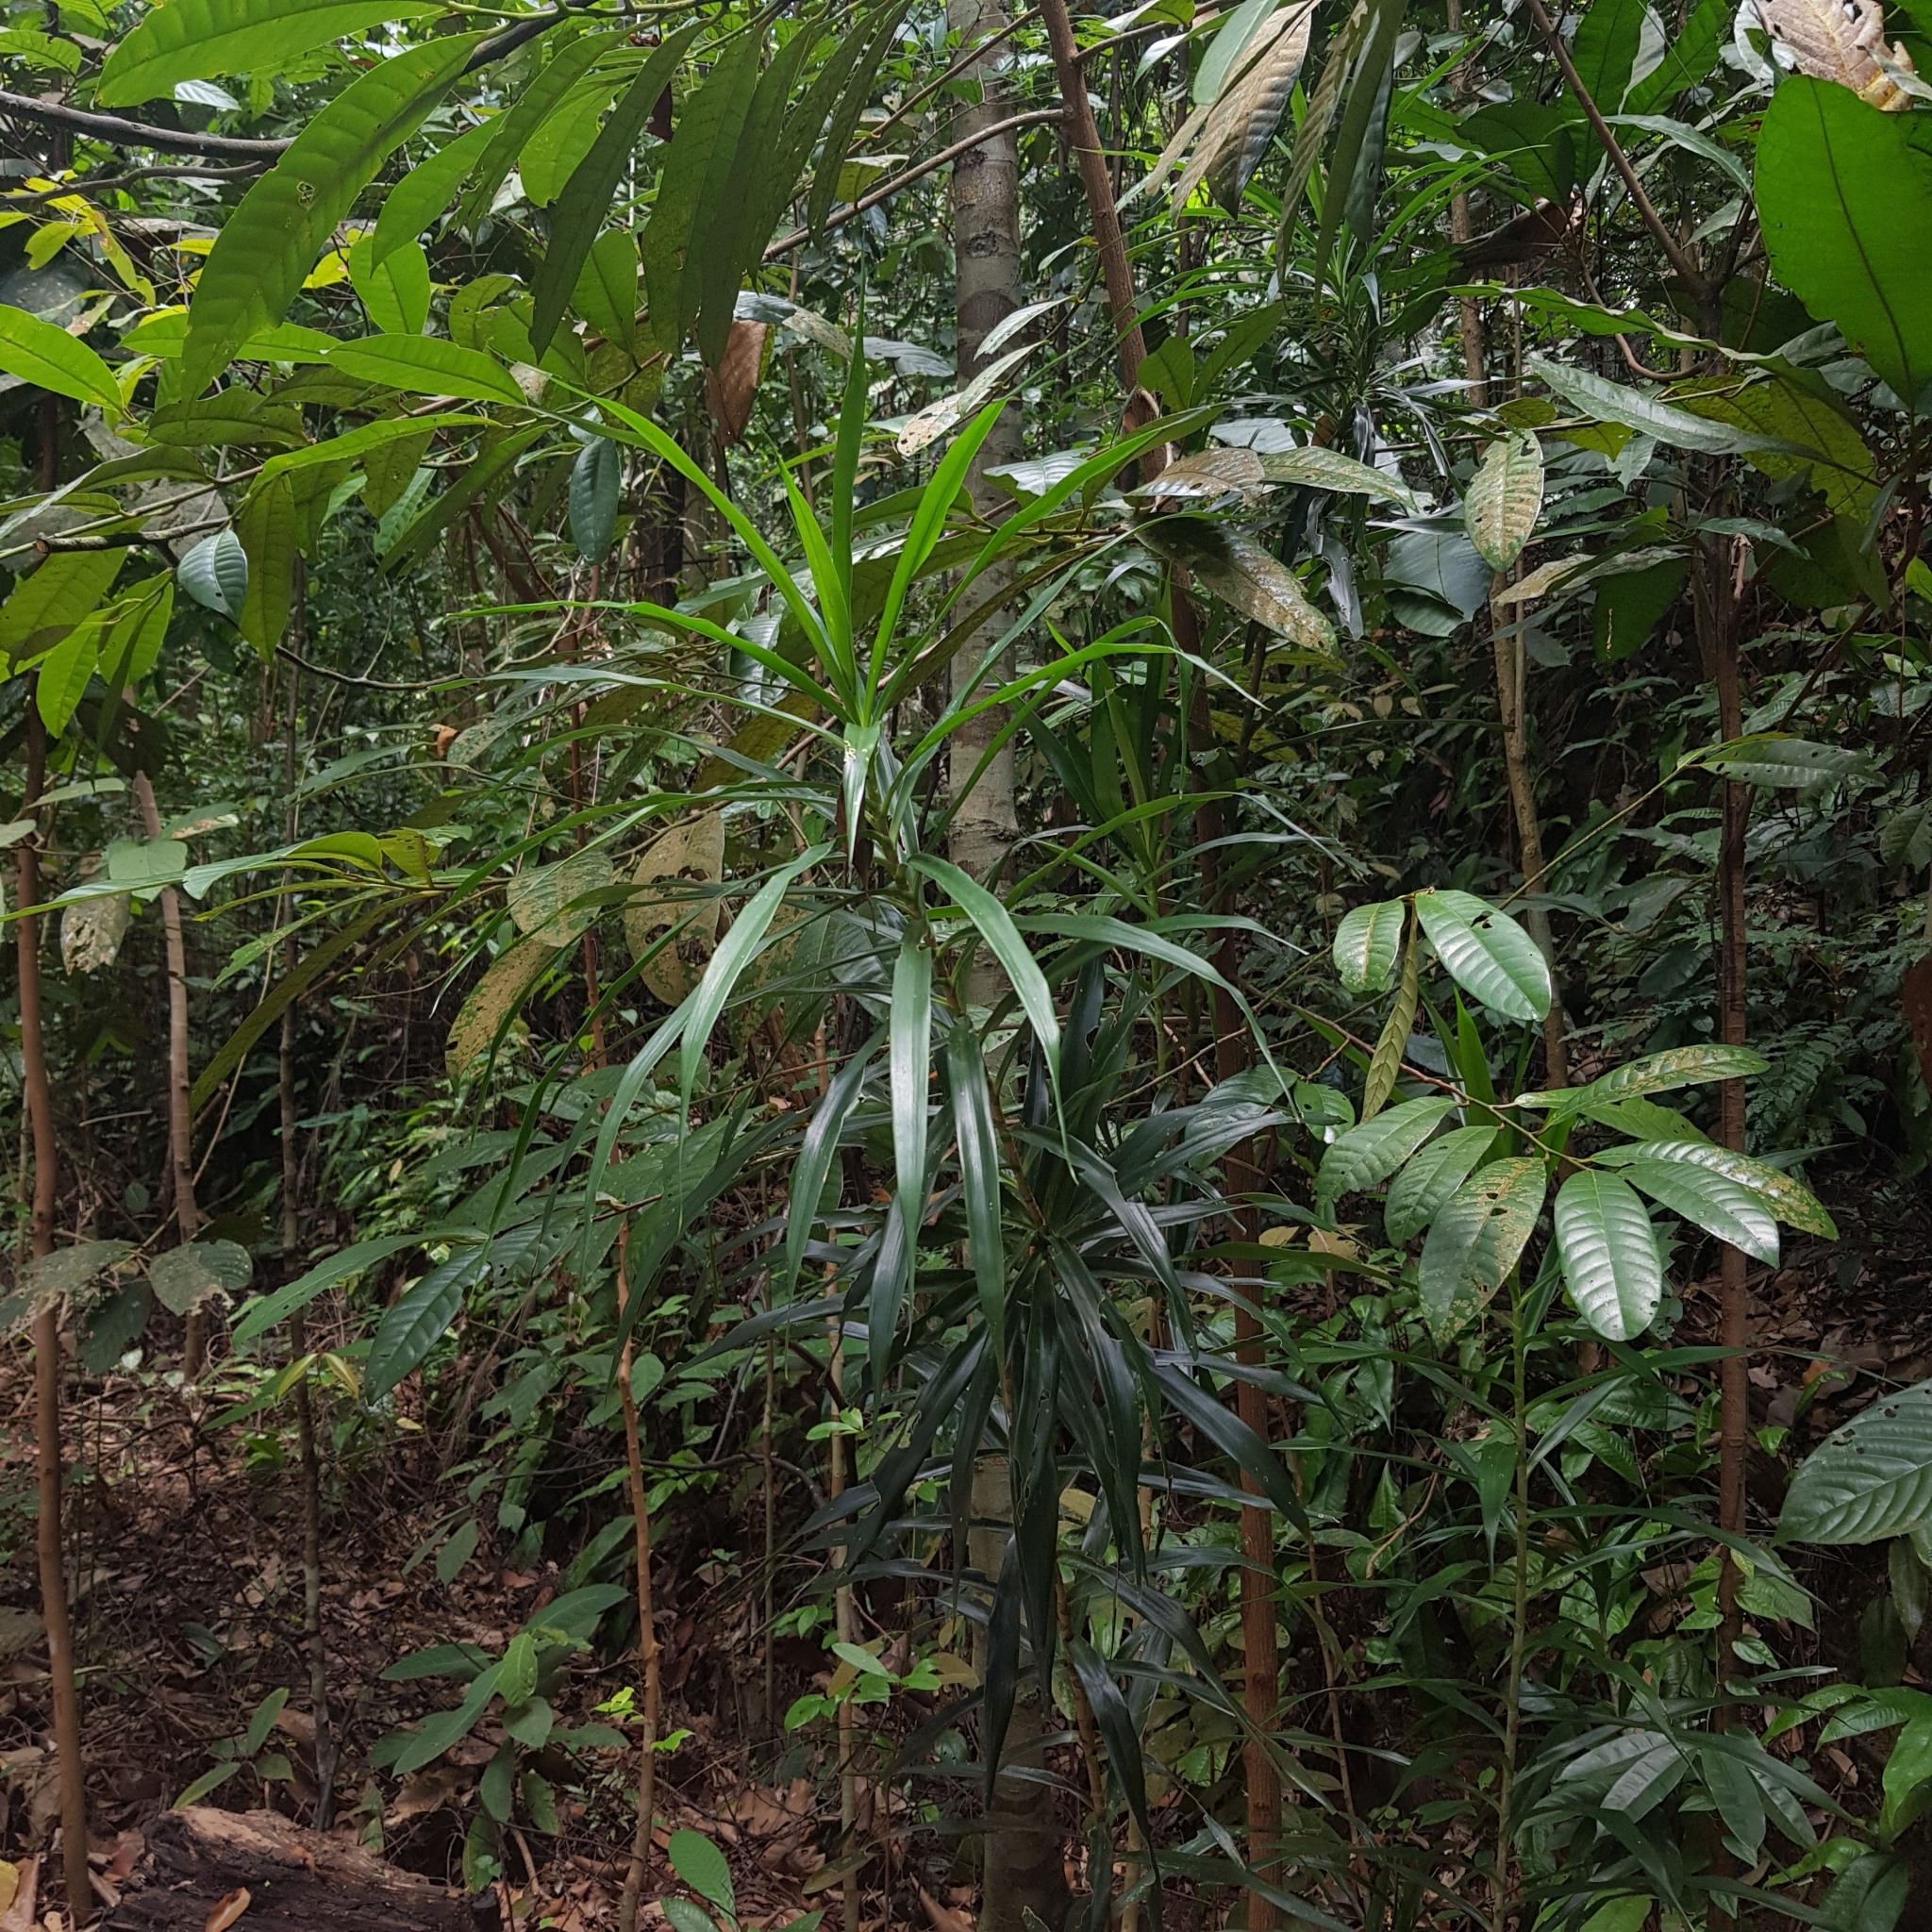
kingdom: Plantae
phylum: Tracheophyta
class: Liliopsida
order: Asparagales
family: Asparagaceae
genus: Dracaena
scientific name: Dracaena angustifolia
